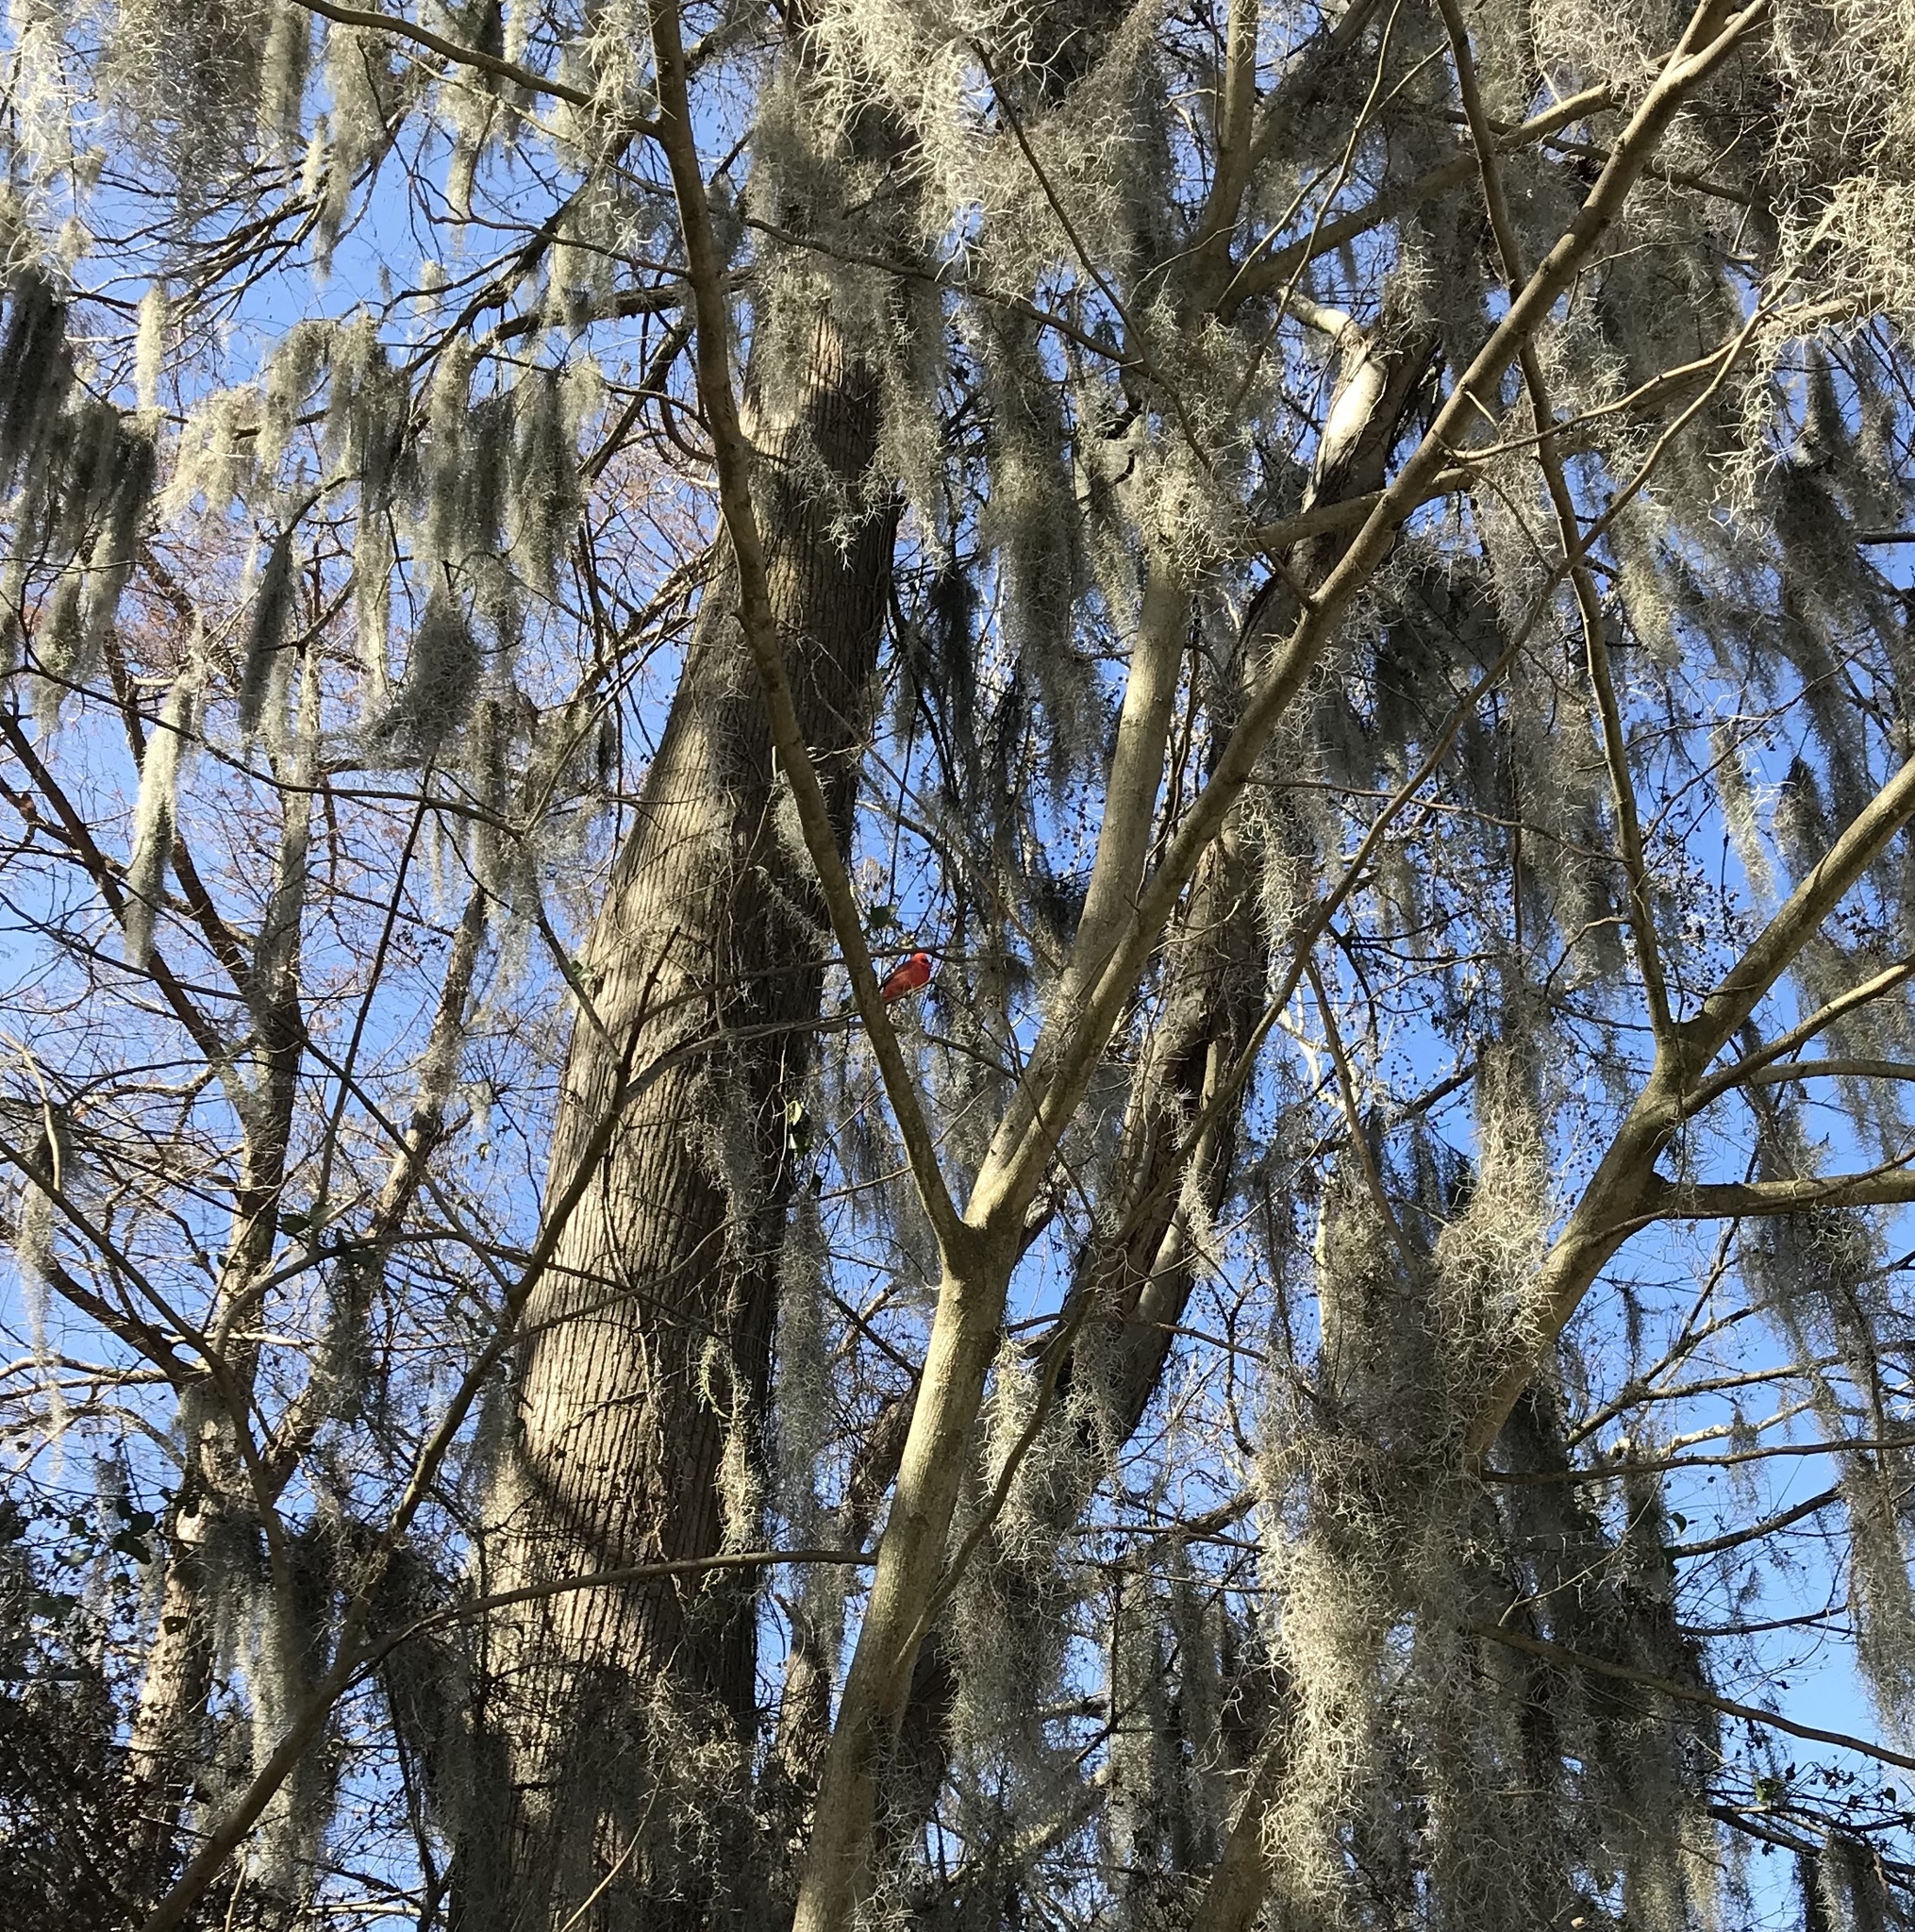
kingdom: Animalia
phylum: Chordata
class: Aves
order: Passeriformes
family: Cardinalidae
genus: Cardinalis
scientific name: Cardinalis cardinalis
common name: Northern cardinal
